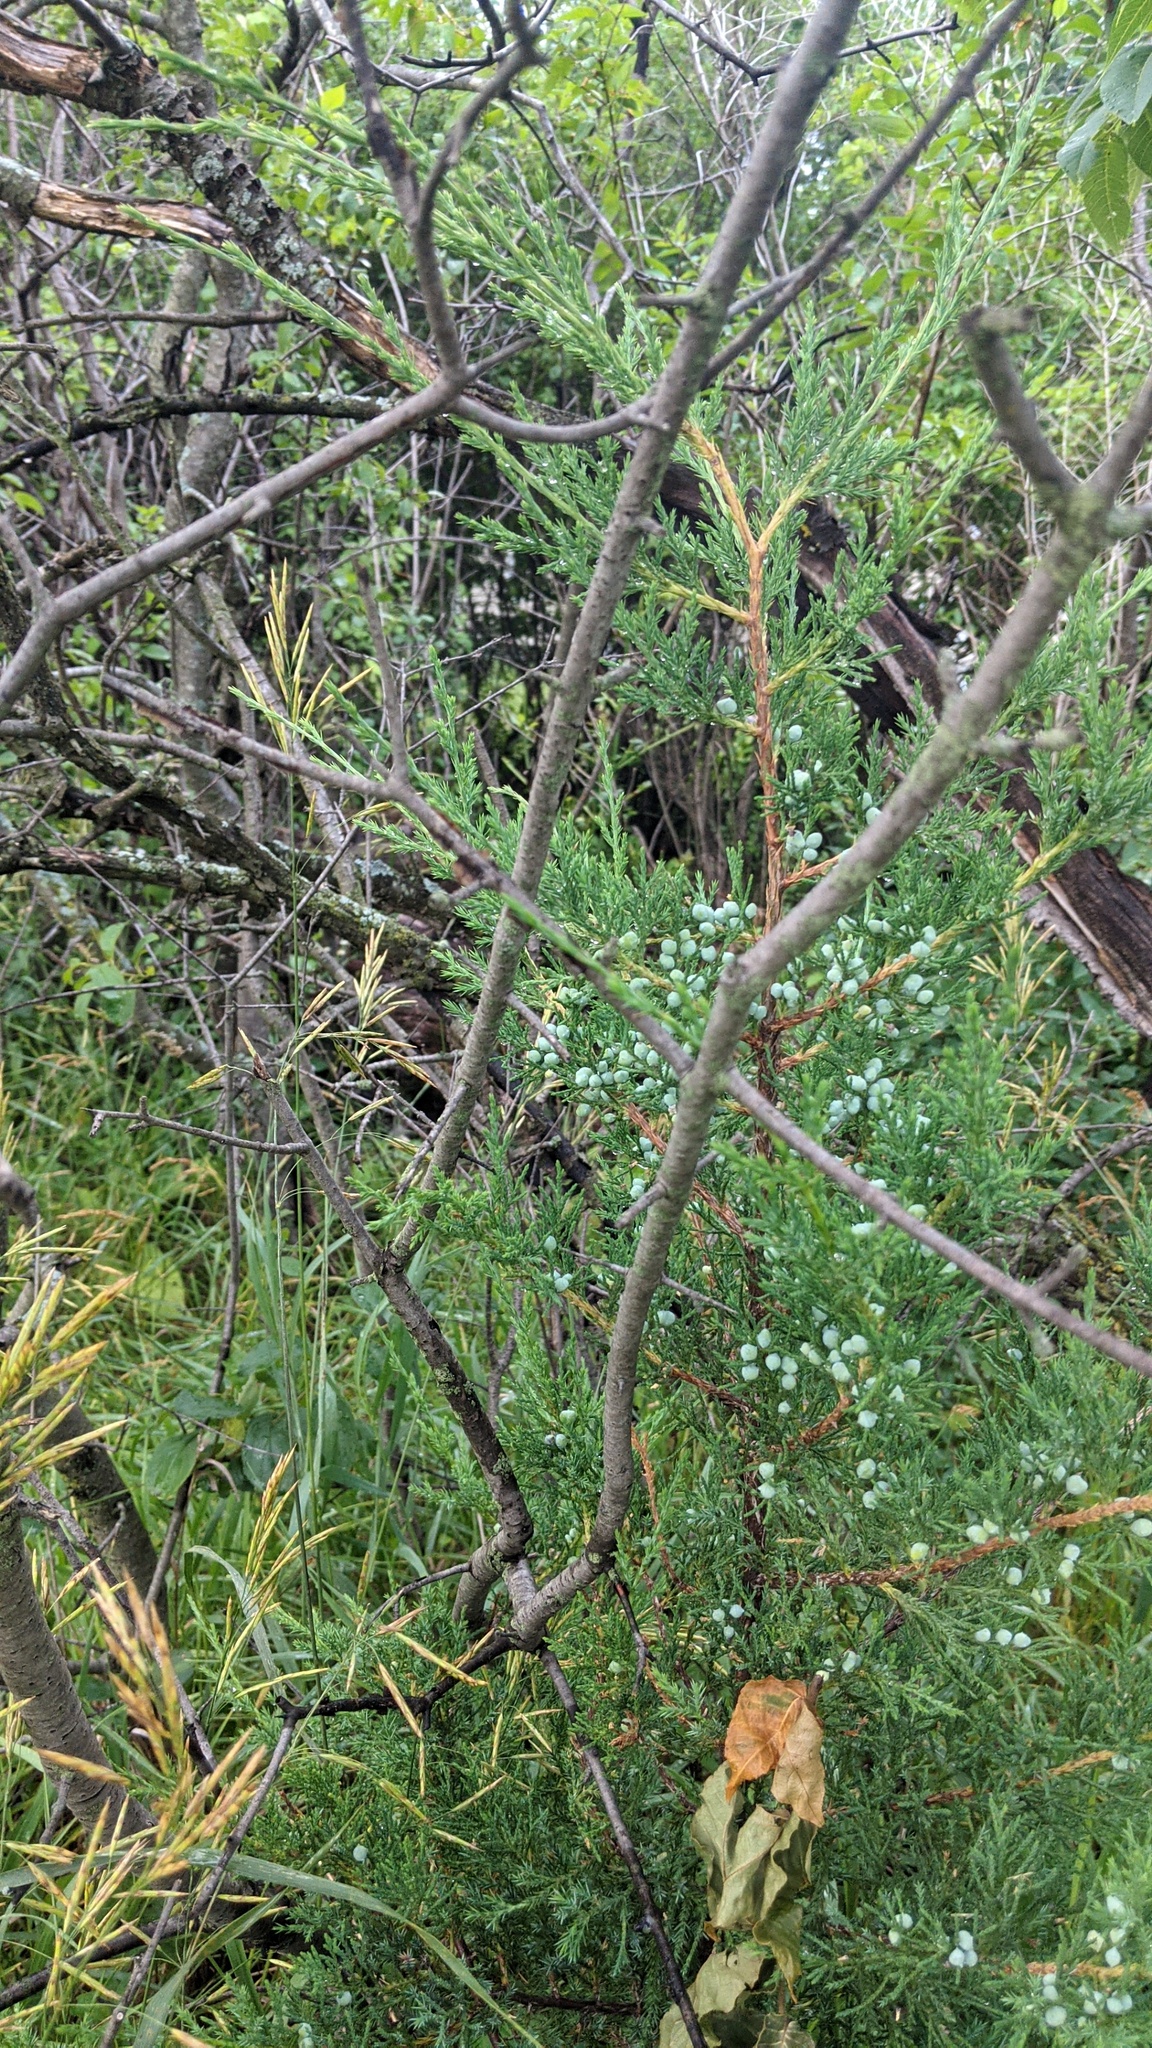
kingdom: Plantae
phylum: Tracheophyta
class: Pinopsida
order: Pinales
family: Cupressaceae
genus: Juniperus
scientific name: Juniperus virginiana
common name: Red juniper
